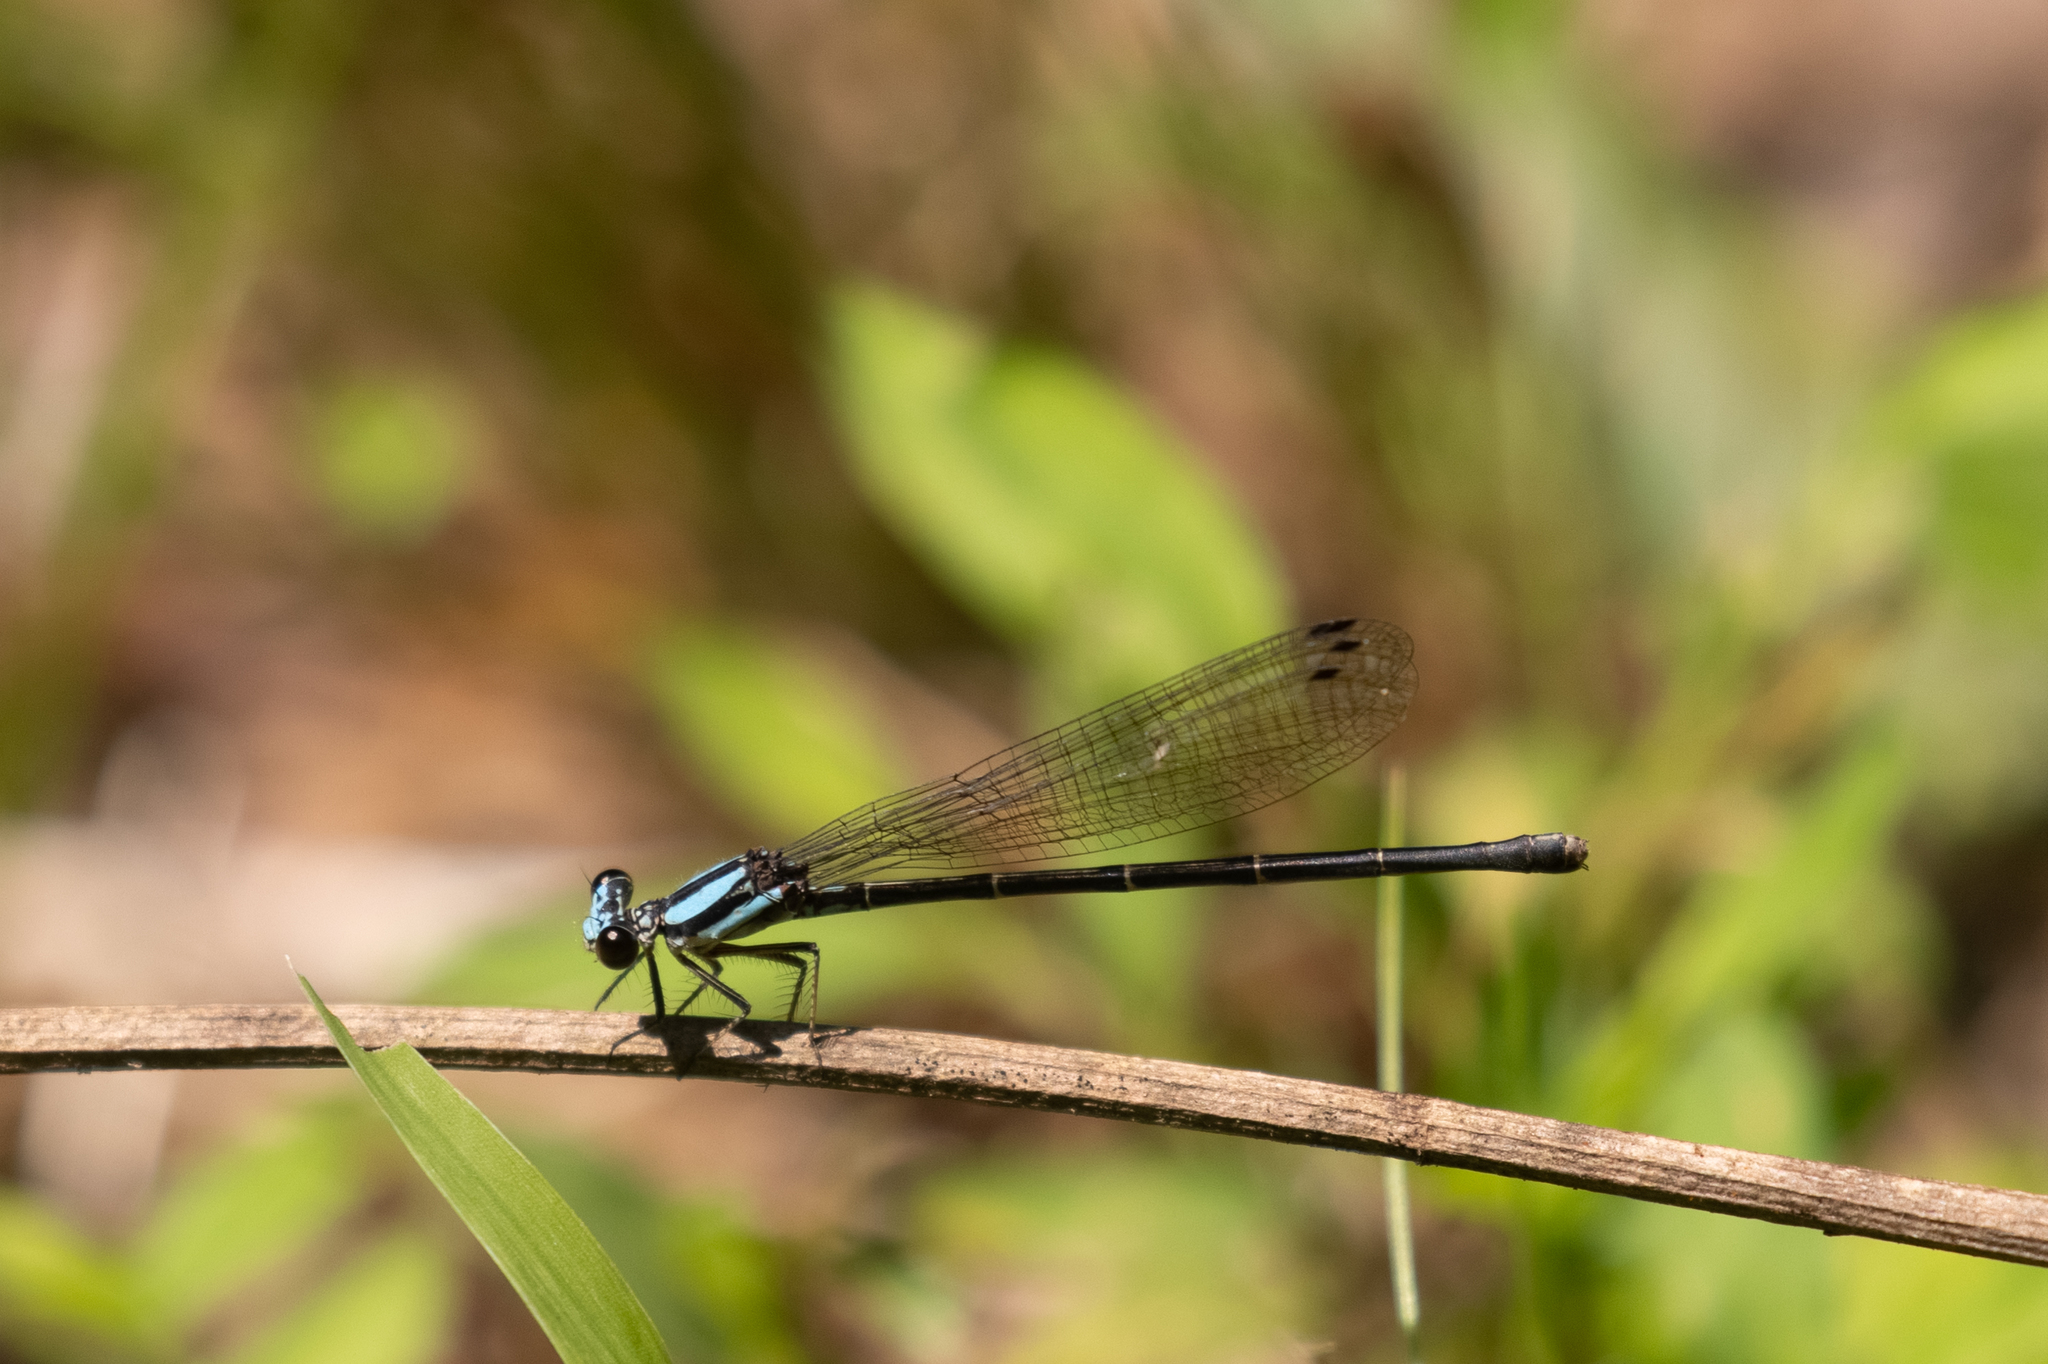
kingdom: Animalia
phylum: Arthropoda
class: Insecta
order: Odonata
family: Coenagrionidae
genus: Argia
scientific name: Argia tibialis
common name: Blue-tipped dancer
